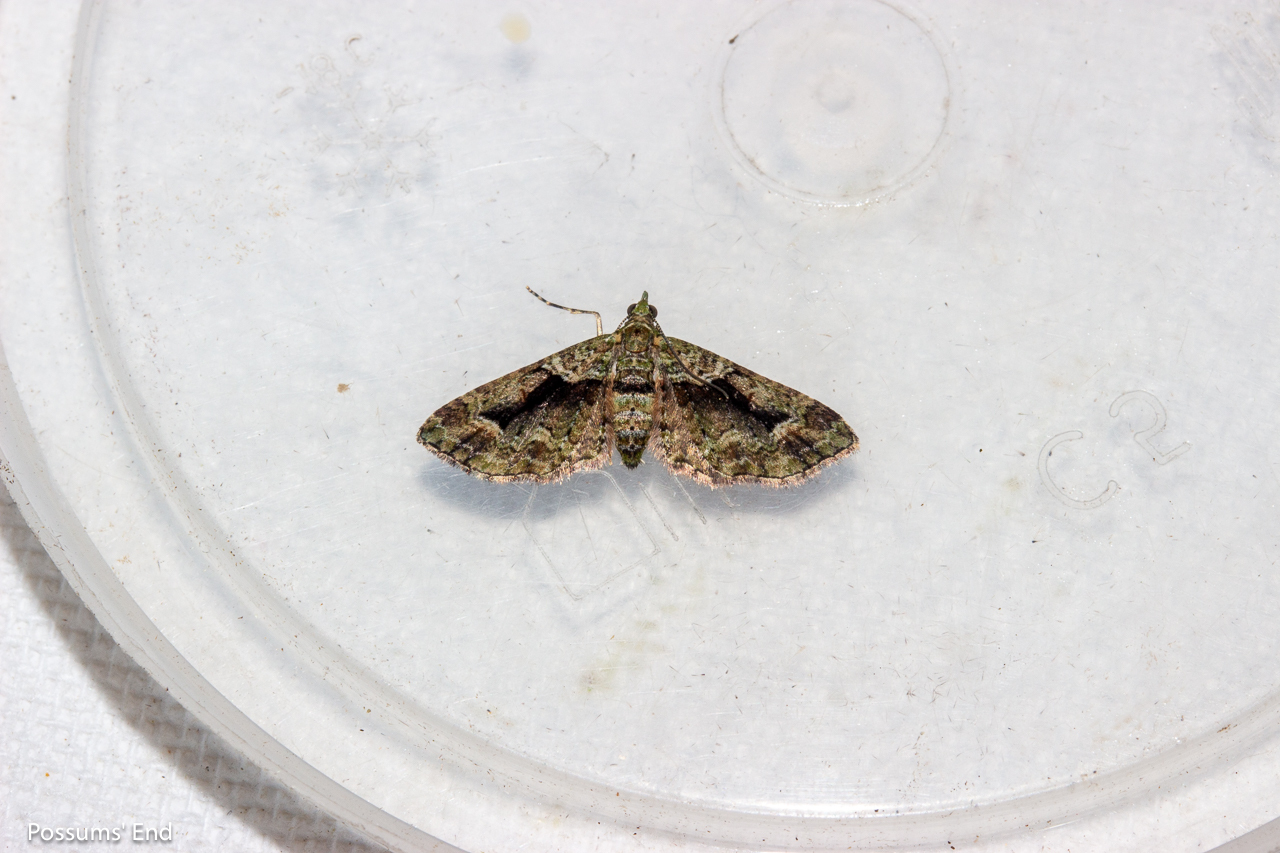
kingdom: Animalia
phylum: Arthropoda
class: Insecta
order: Lepidoptera
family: Geometridae
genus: Pasiphila
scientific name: Pasiphila suffusa
